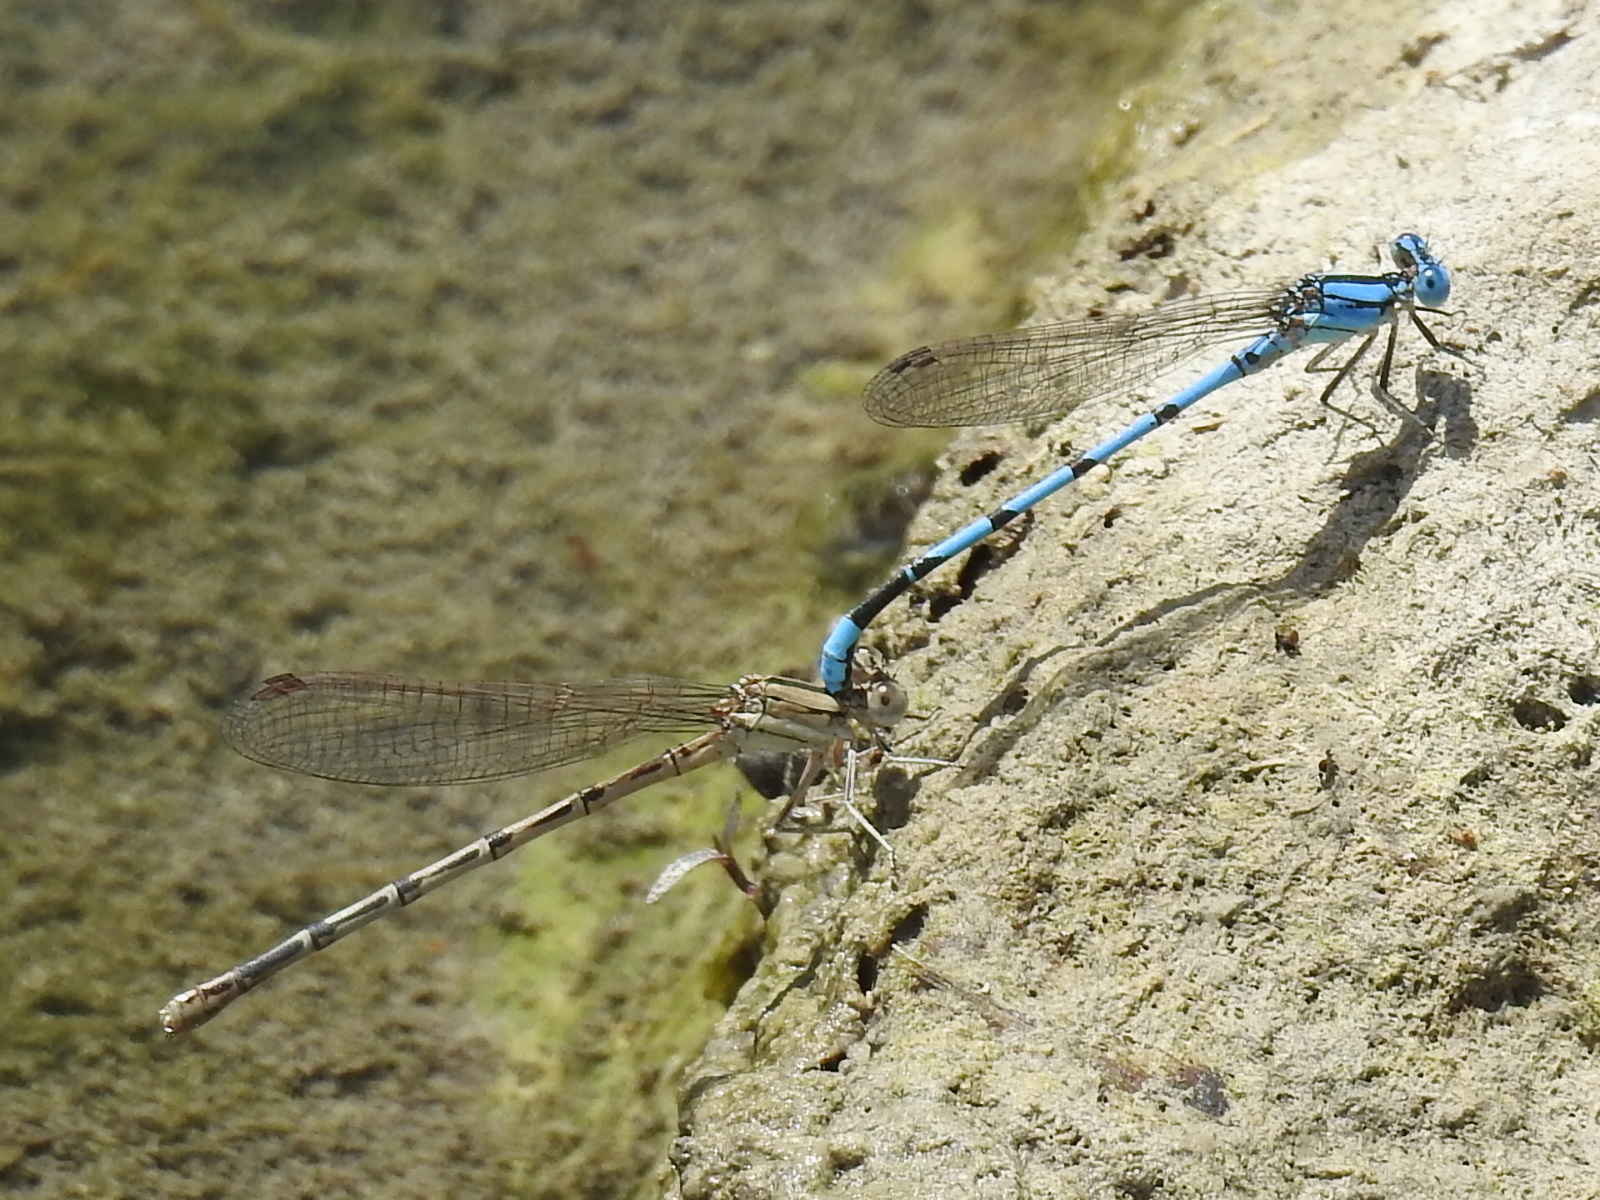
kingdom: Animalia
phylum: Arthropoda
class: Insecta
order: Odonata
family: Coenagrionidae
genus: Argia
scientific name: Argia nahuana
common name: Aztec dancer
